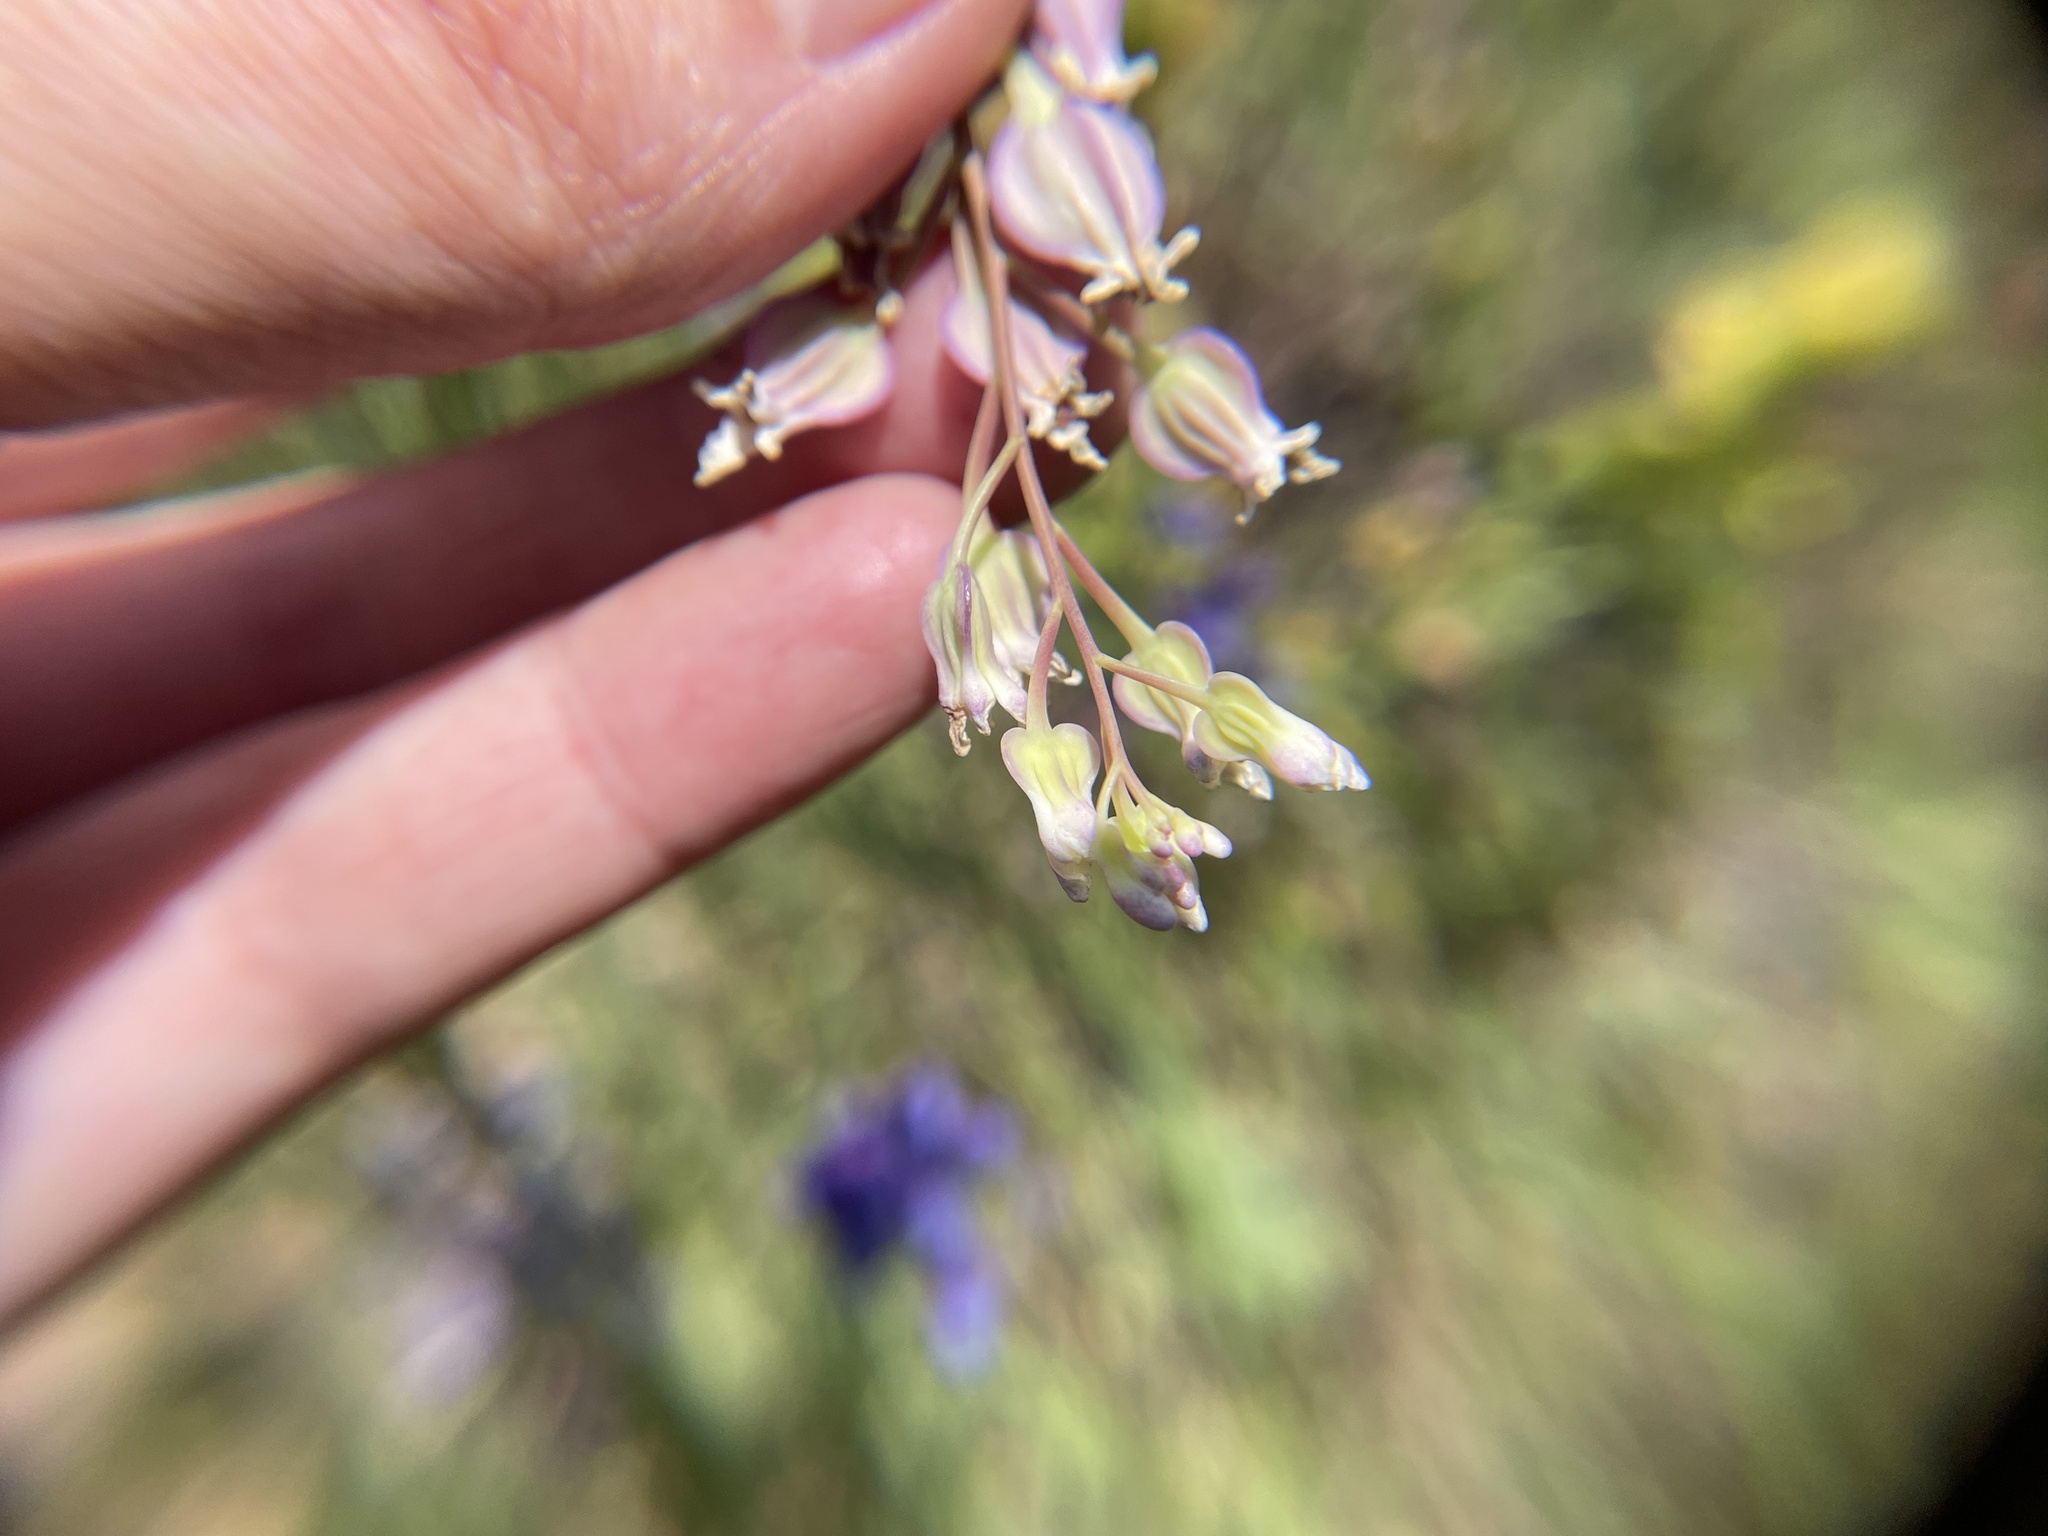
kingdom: Plantae
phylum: Tracheophyta
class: Magnoliopsida
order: Brassicales
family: Brassicaceae
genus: Streptanthus
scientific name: Streptanthus tortuosus
